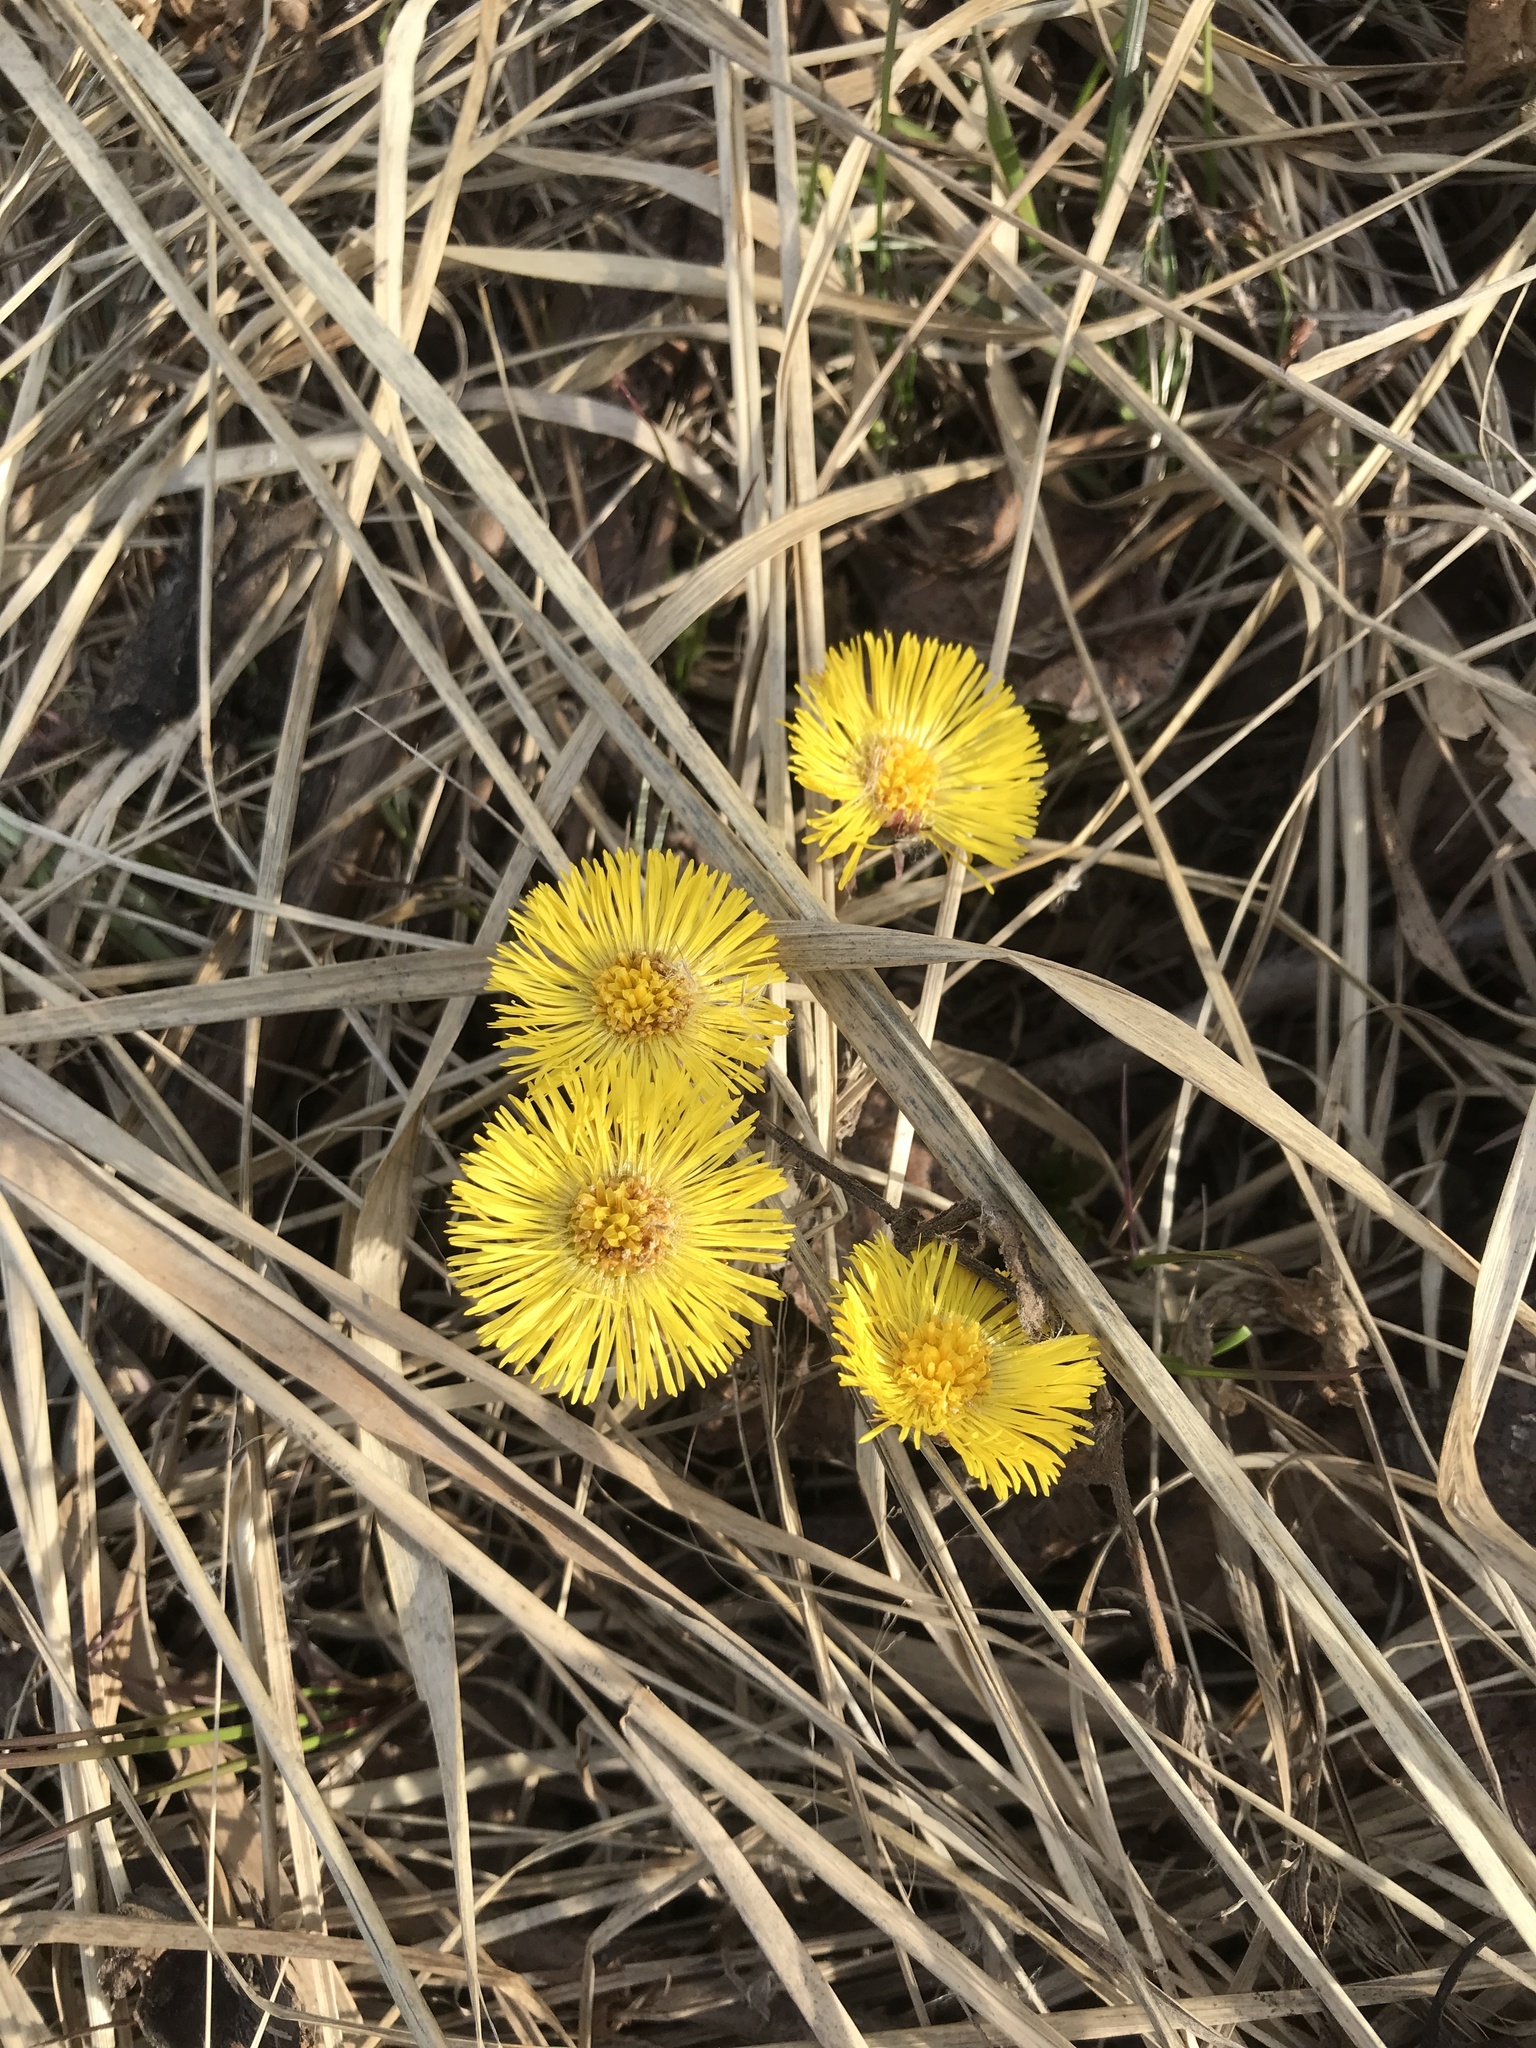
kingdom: Plantae
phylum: Tracheophyta
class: Magnoliopsida
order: Asterales
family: Asteraceae
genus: Tussilago
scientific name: Tussilago farfara
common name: Coltsfoot
